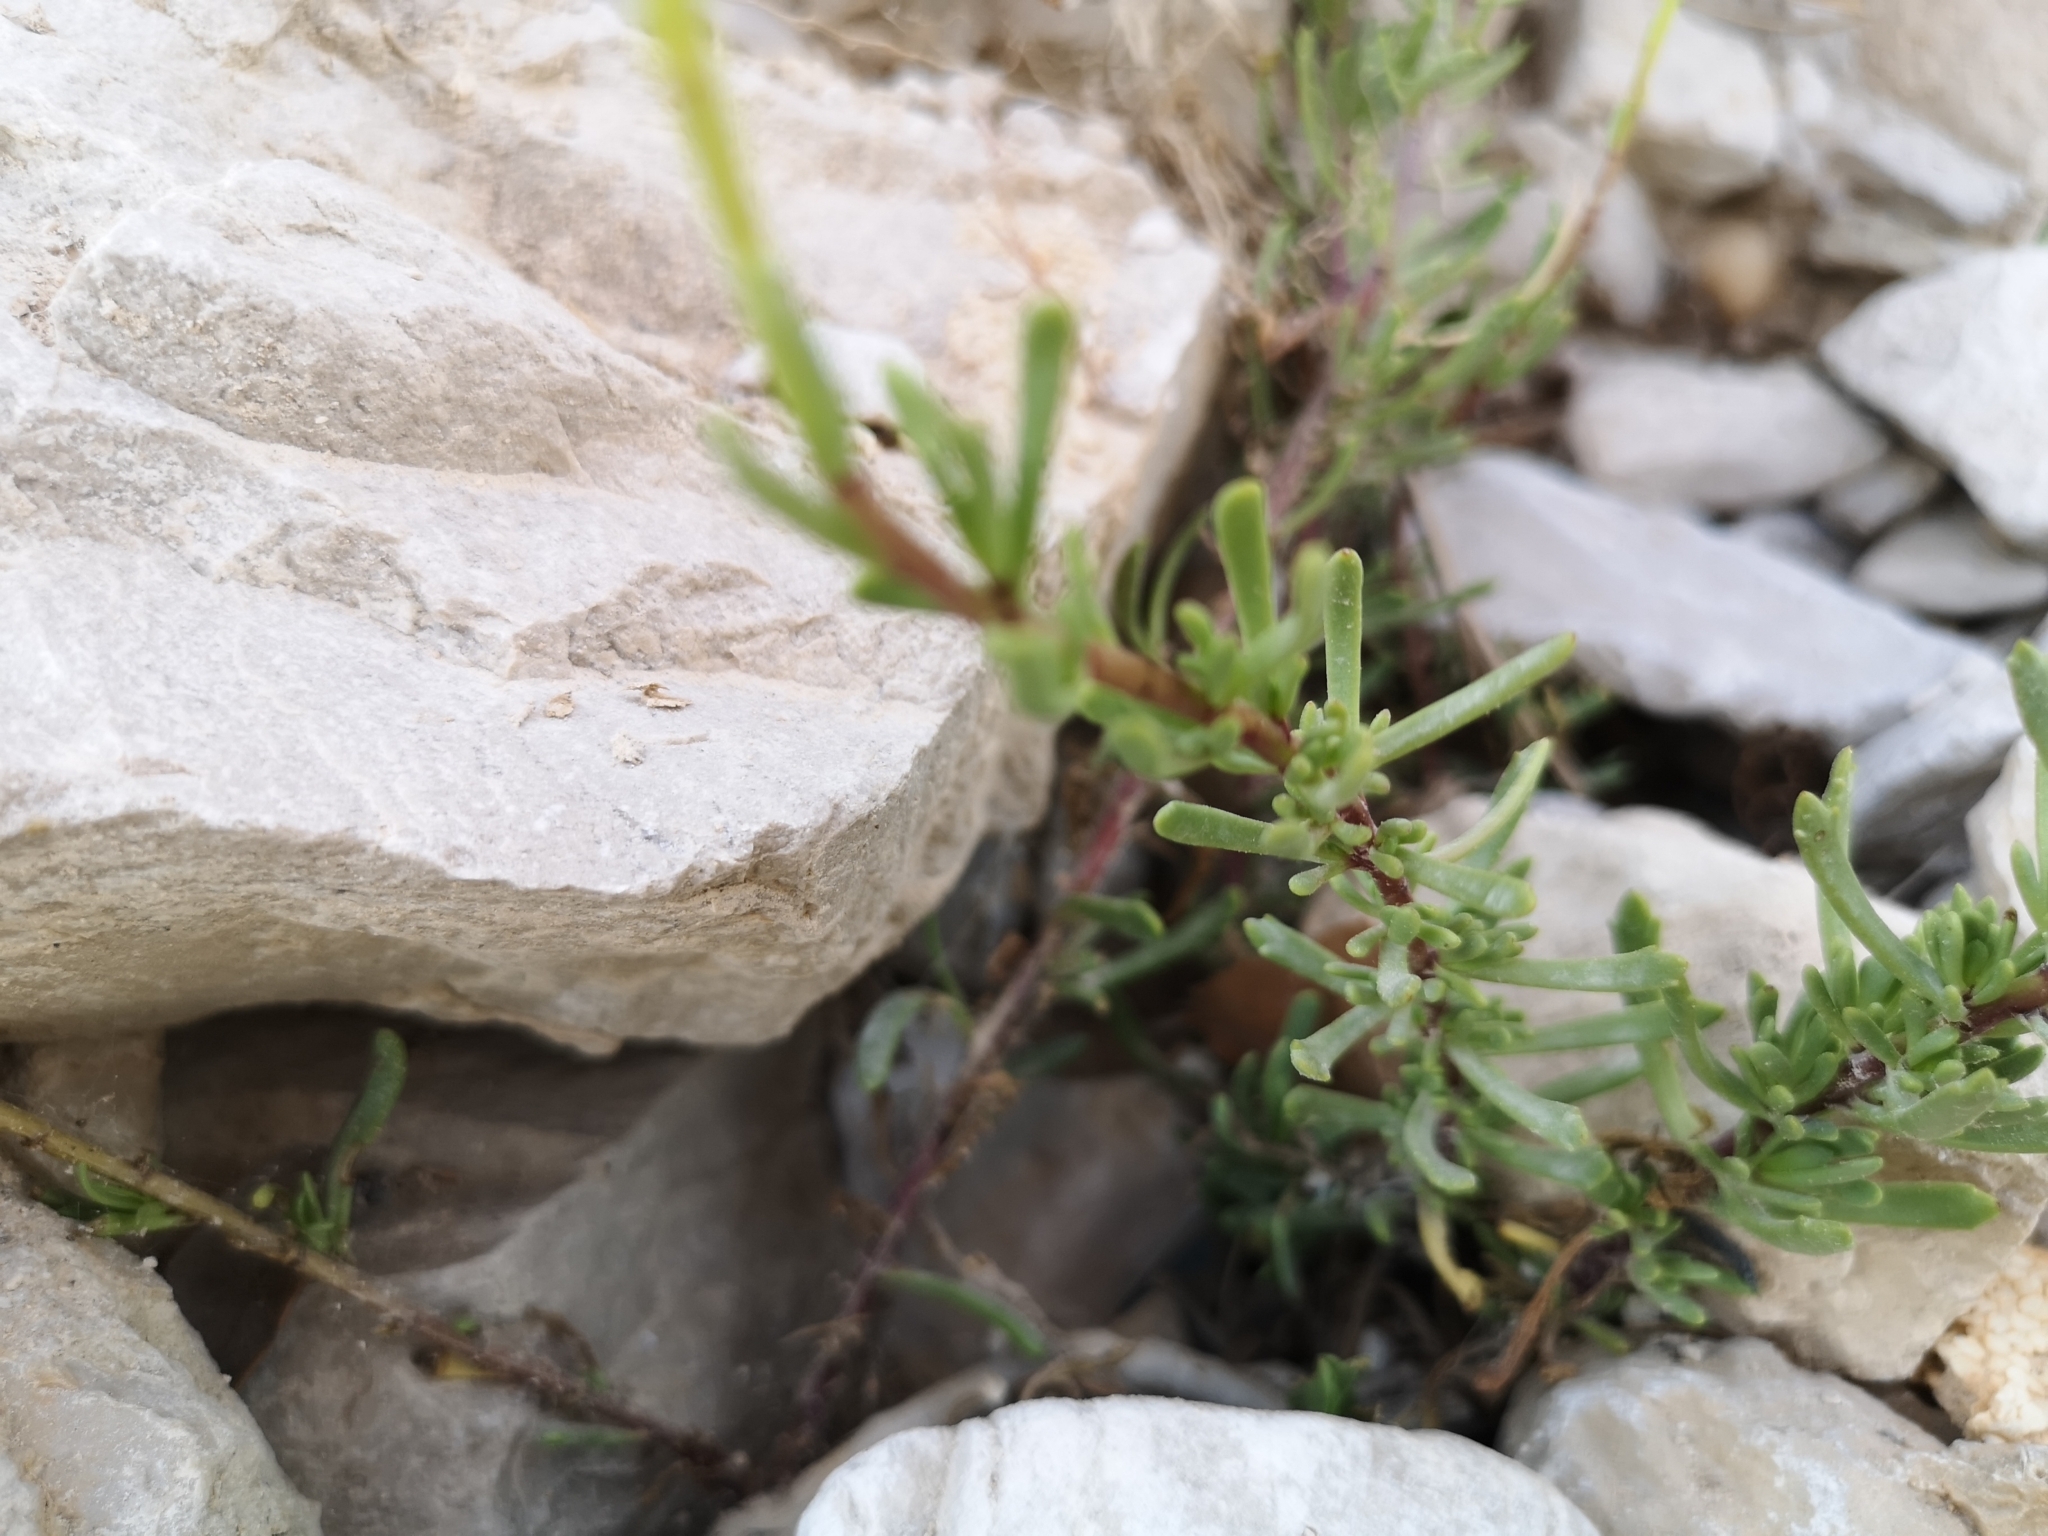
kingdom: Plantae
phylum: Tracheophyta
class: Magnoliopsida
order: Asterales
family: Asteraceae
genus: Limbarda
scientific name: Limbarda crithmoides
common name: Golden samphire
